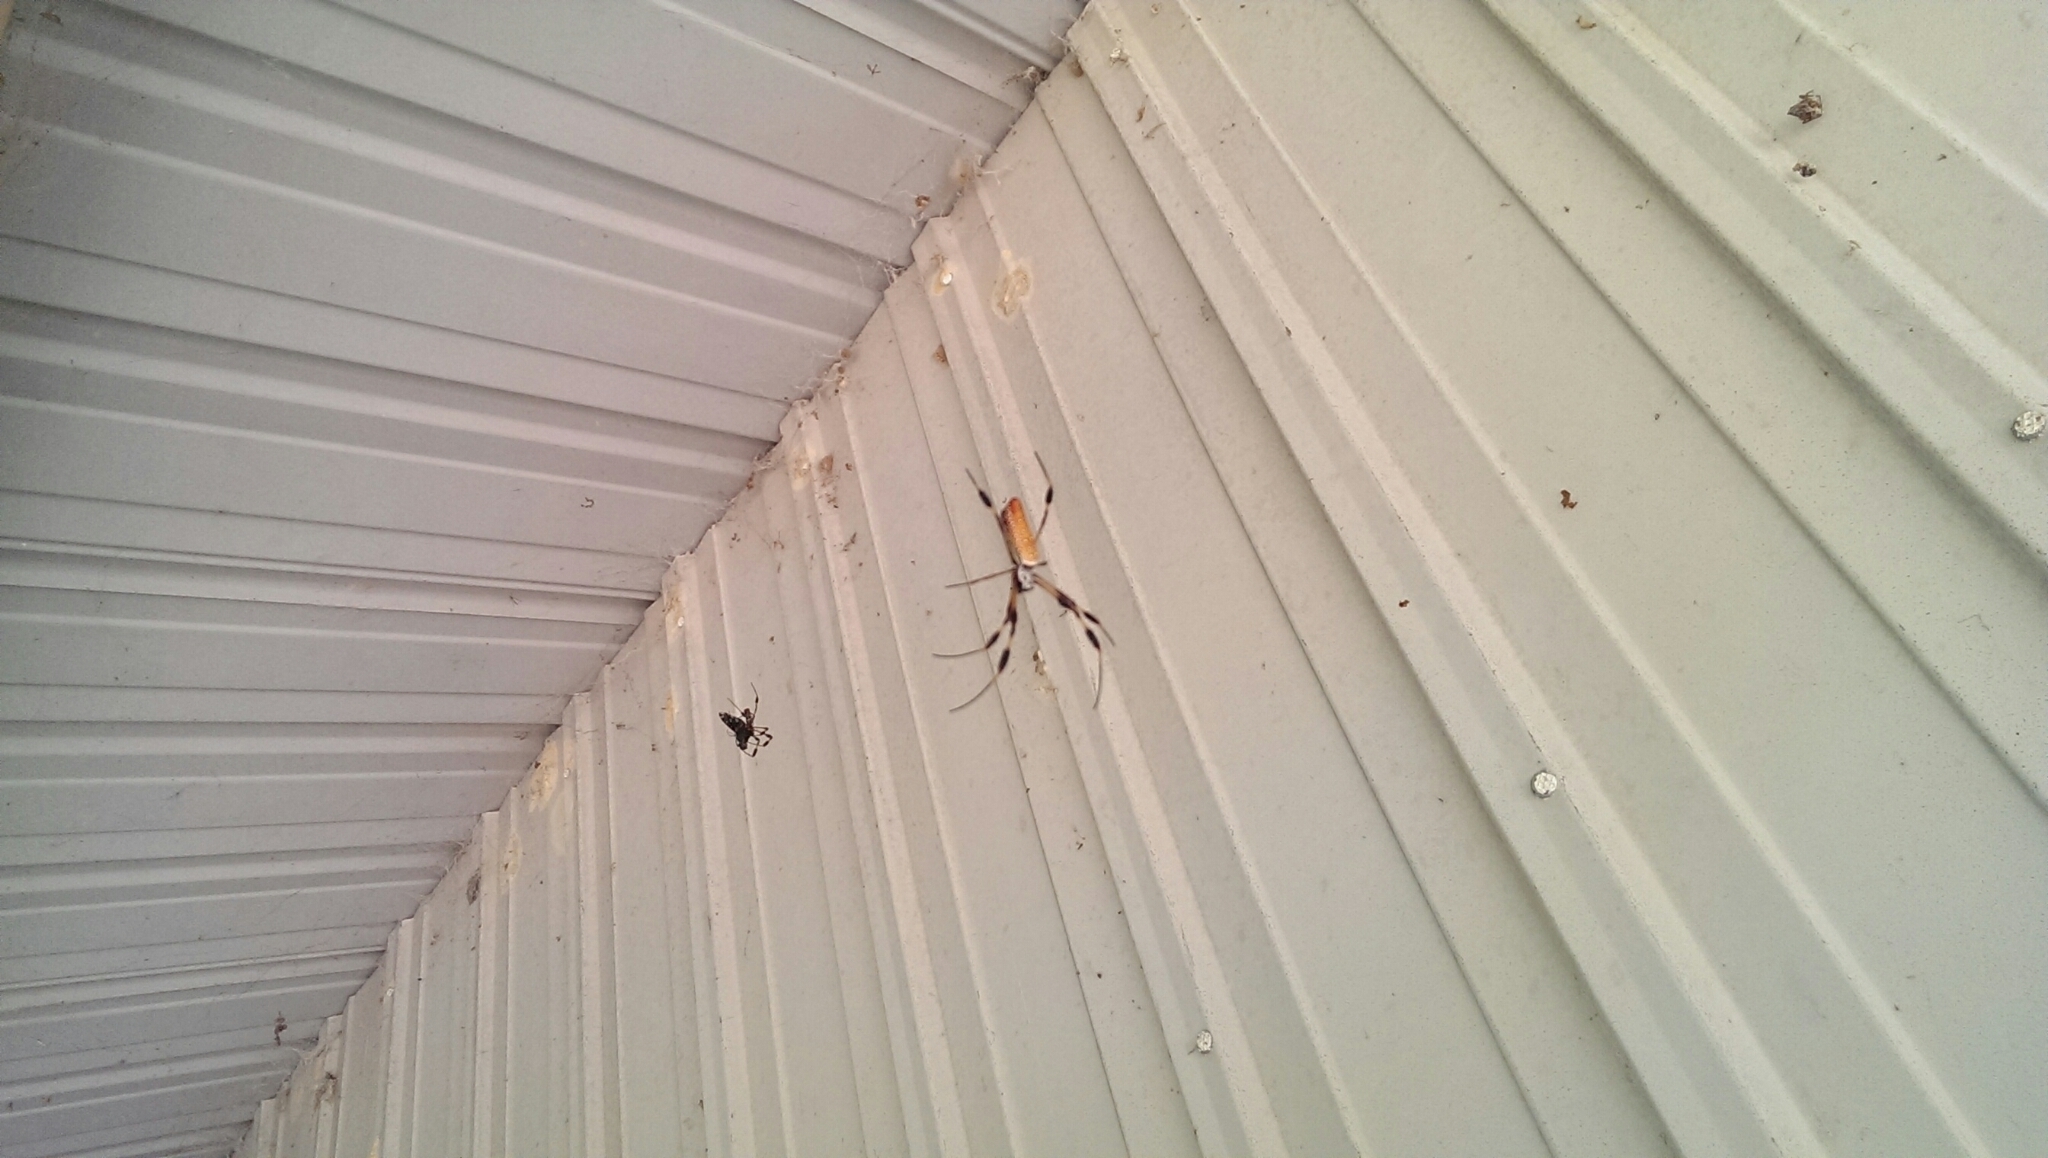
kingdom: Animalia
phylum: Arthropoda
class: Arachnida
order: Araneae
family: Araneidae
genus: Trichonephila
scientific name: Trichonephila clavipes
